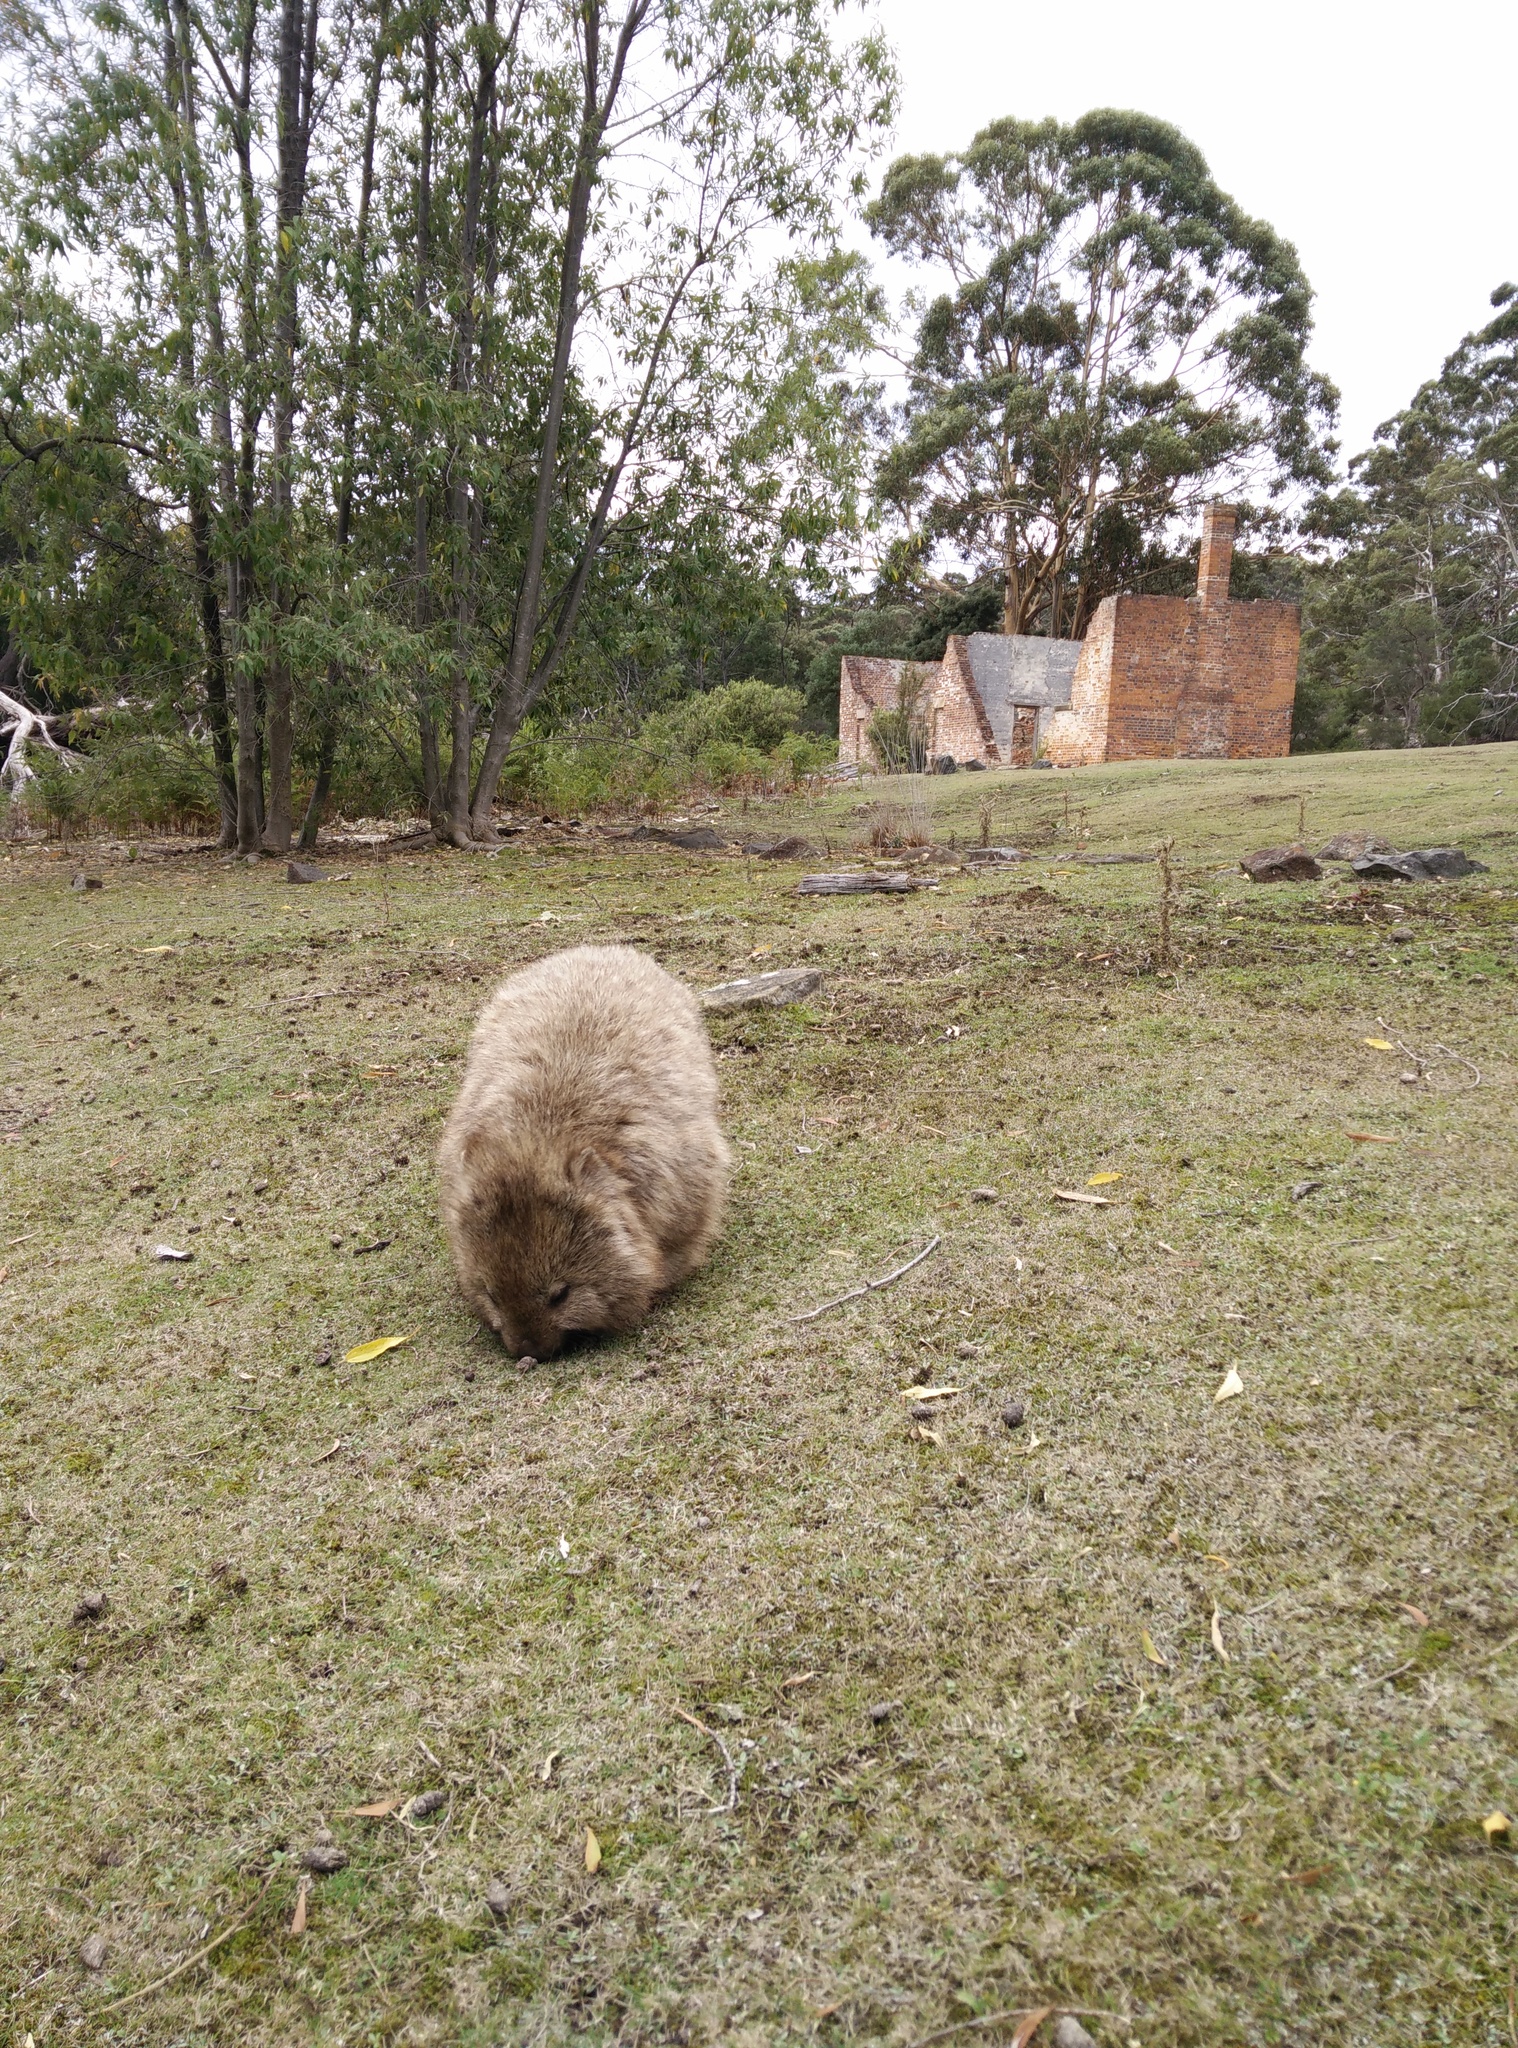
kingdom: Animalia
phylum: Chordata
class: Mammalia
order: Diprotodontia
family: Vombatidae
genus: Vombatus
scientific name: Vombatus ursinus
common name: Common wombat
